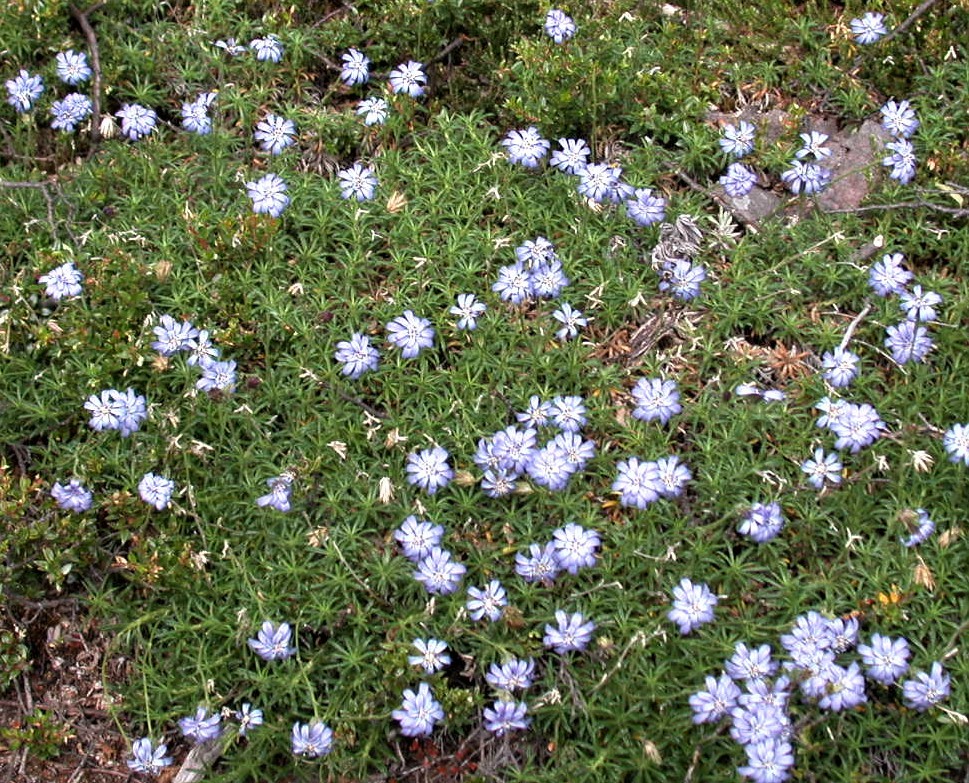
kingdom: Plantae
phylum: Tracheophyta
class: Magnoliopsida
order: Asterales
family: Asteraceae
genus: Perezia
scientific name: Perezia recurvata
